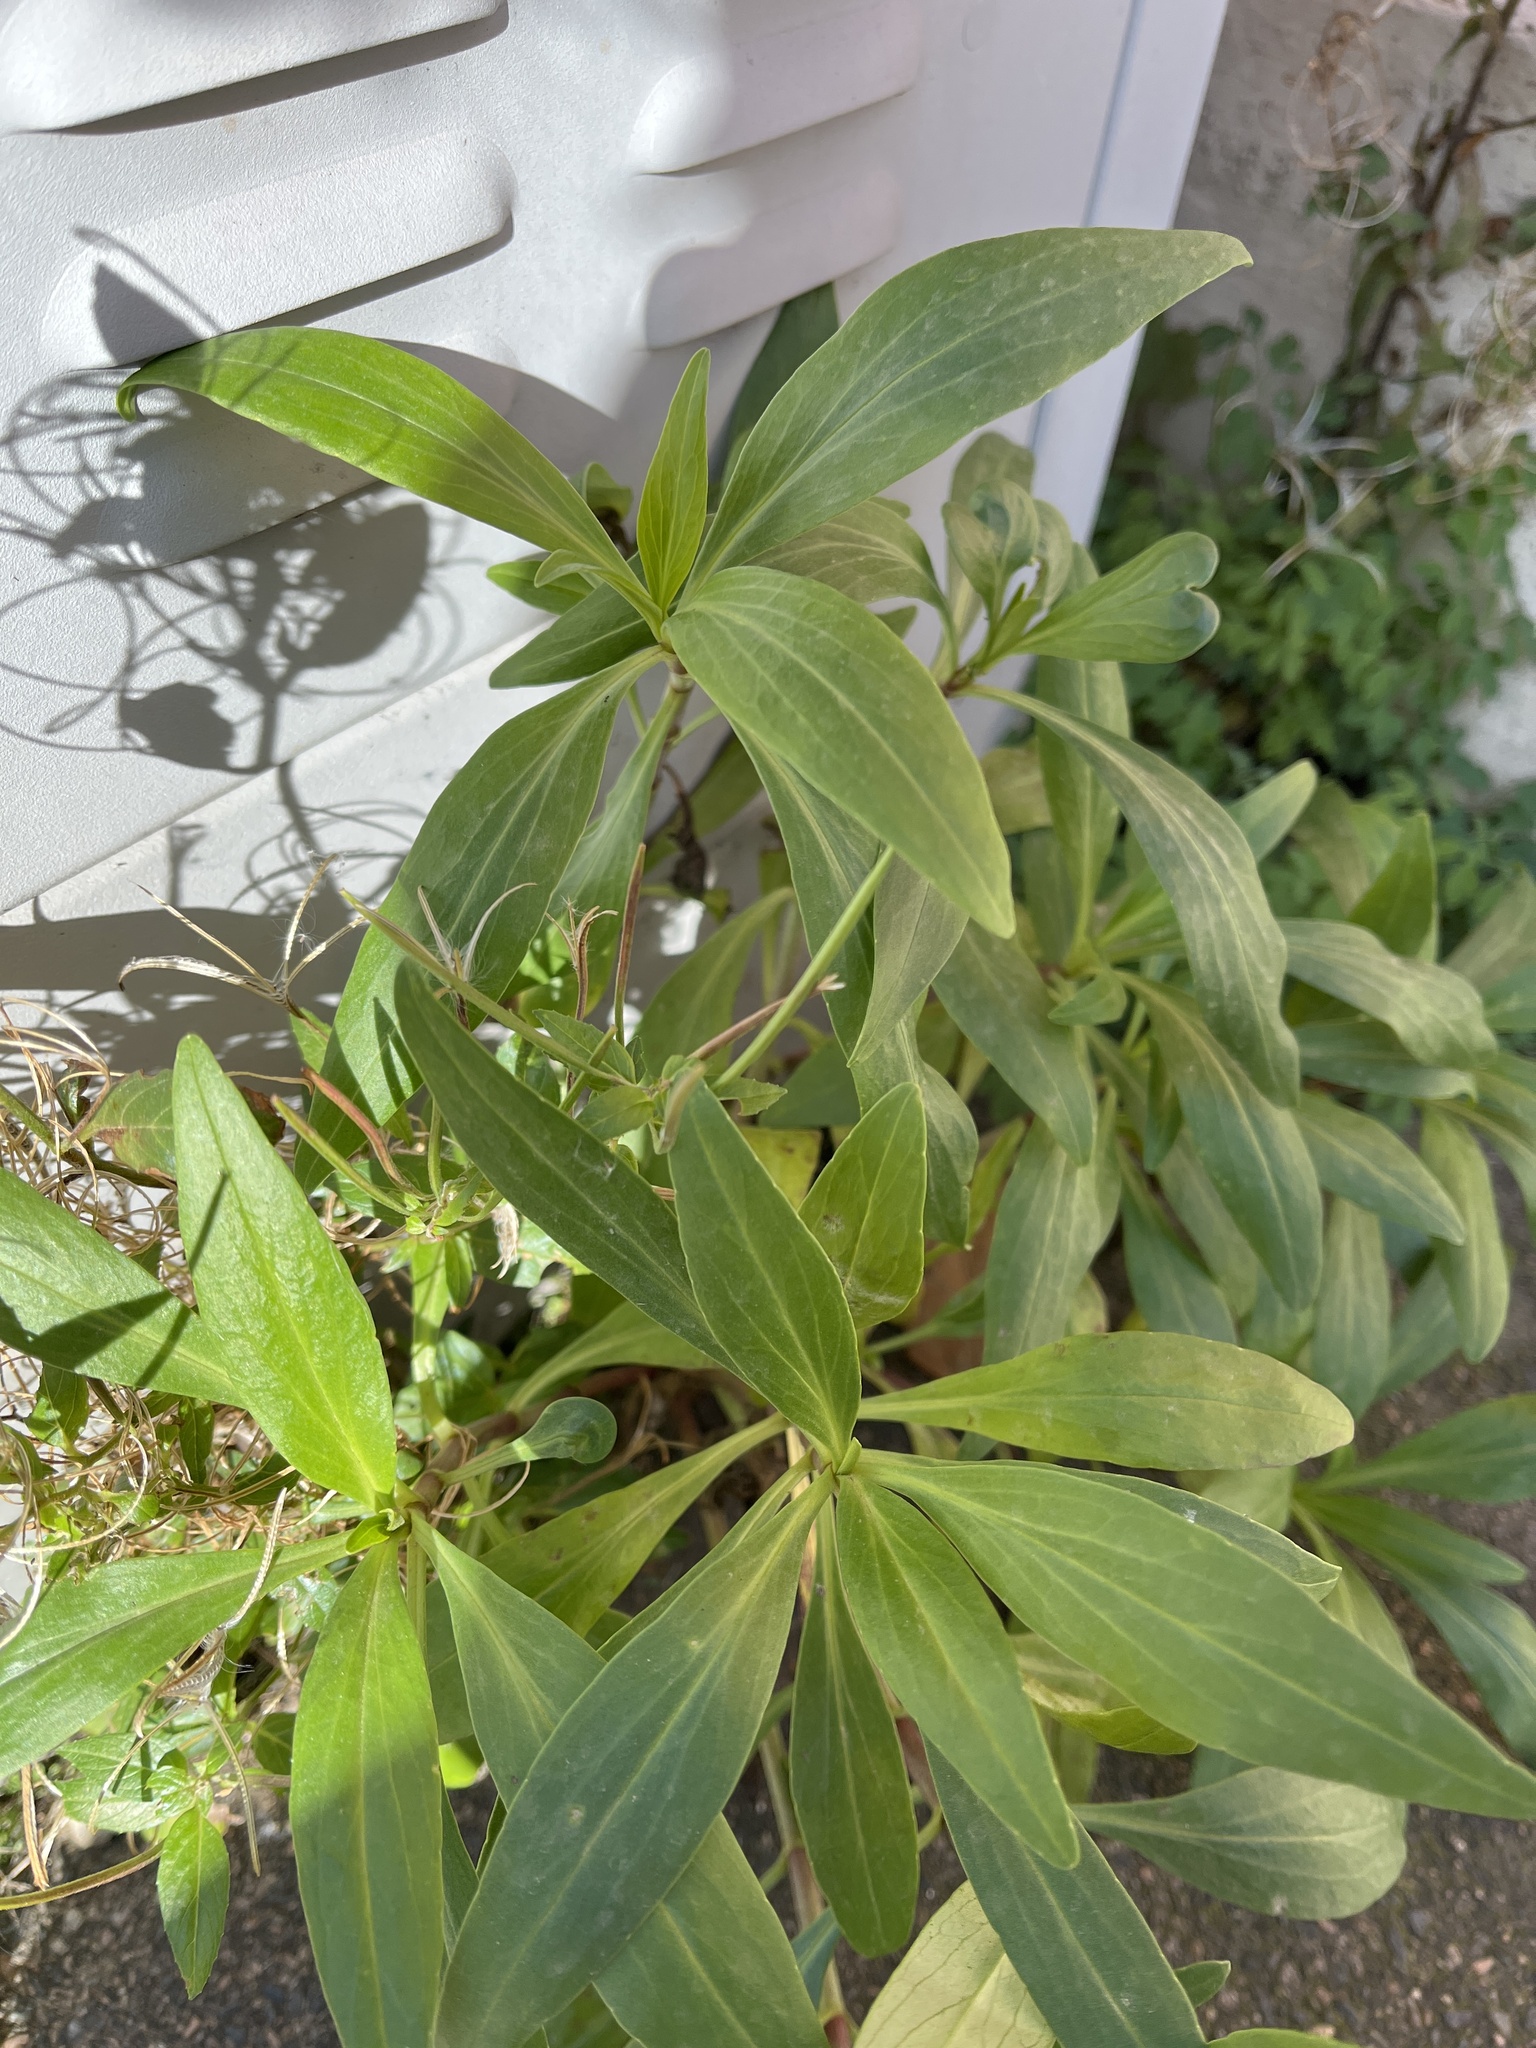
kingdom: Plantae
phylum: Tracheophyta
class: Magnoliopsida
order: Dipsacales
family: Caprifoliaceae
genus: Centranthus
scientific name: Centranthus ruber
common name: Red valerian
